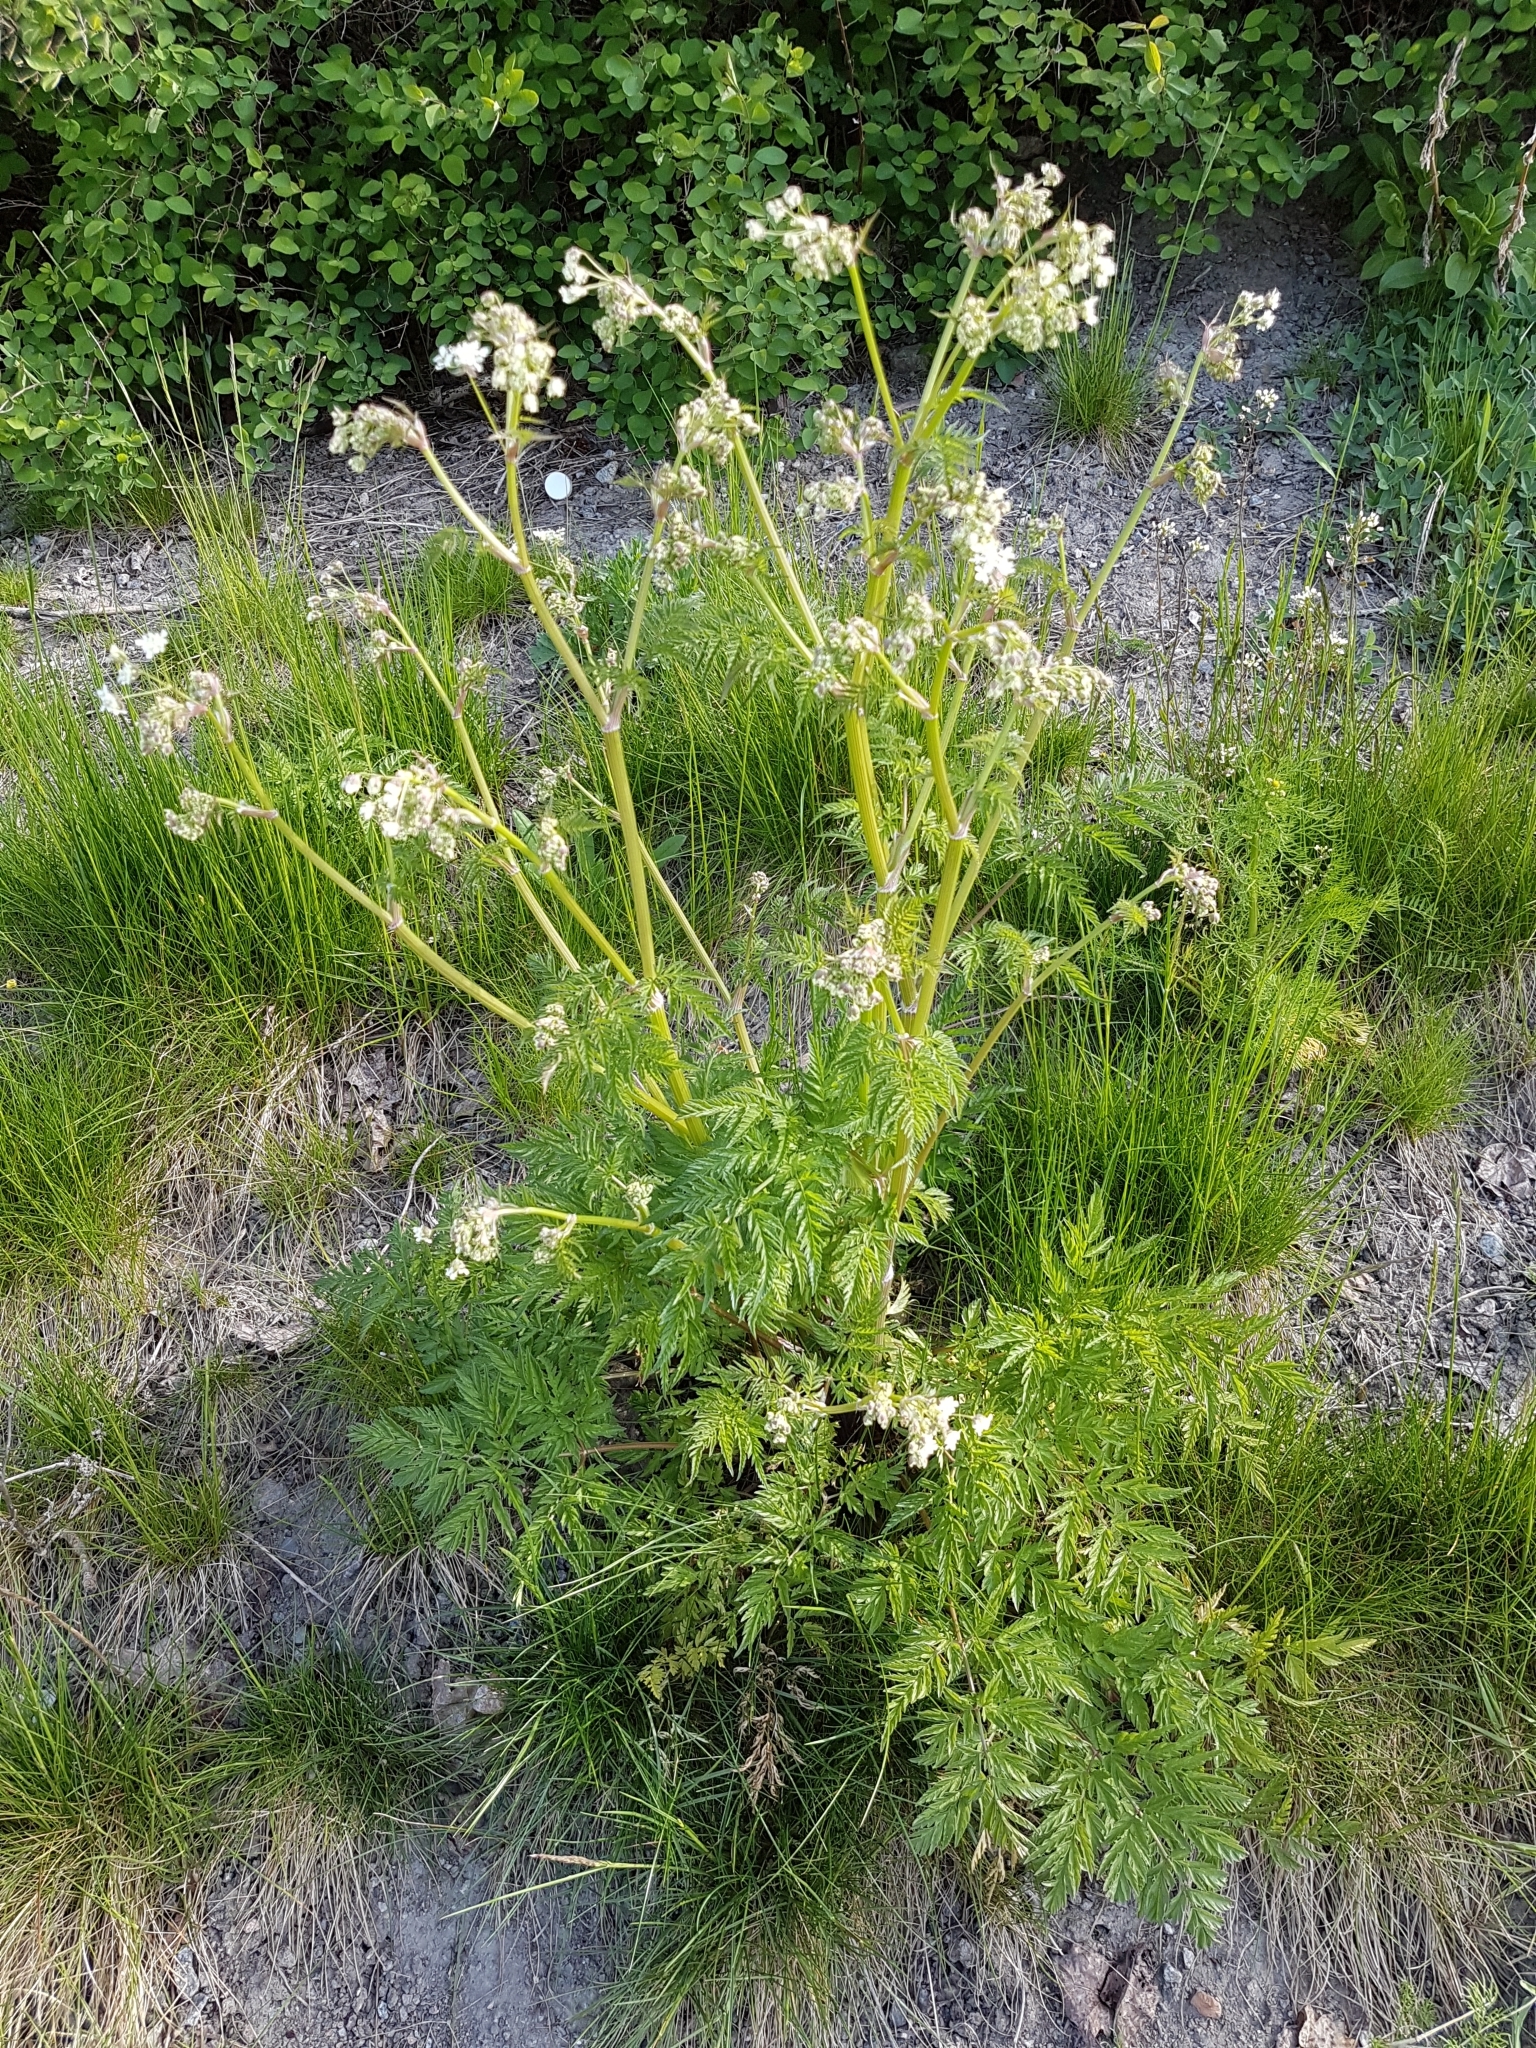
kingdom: Plantae
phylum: Tracheophyta
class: Magnoliopsida
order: Apiales
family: Apiaceae
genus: Anthriscus
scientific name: Anthriscus sylvestris
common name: Cow parsley
